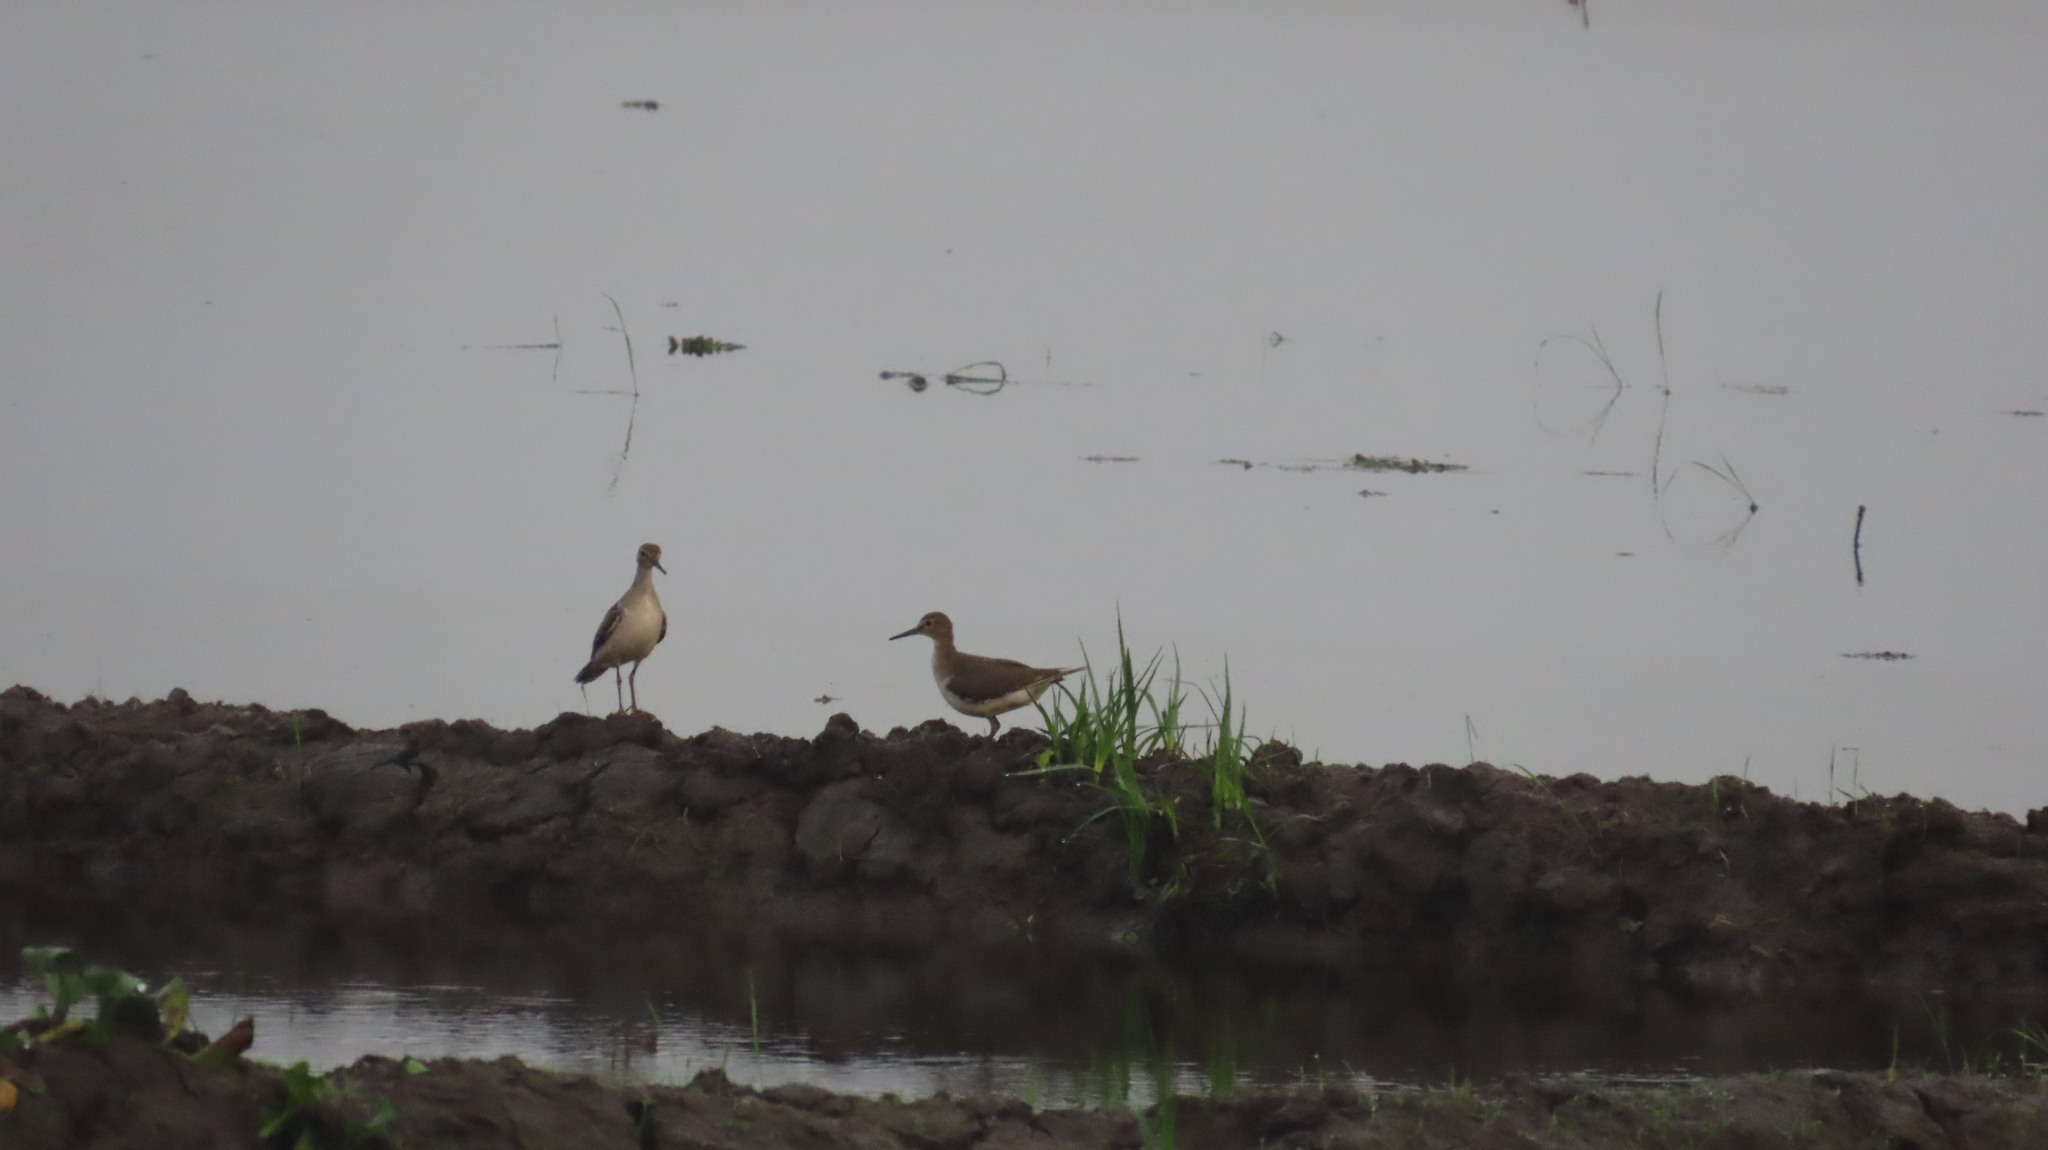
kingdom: Animalia
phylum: Chordata
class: Aves
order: Charadriiformes
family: Scolopacidae
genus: Tringa
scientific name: Tringa glareola
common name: Wood sandpiper
